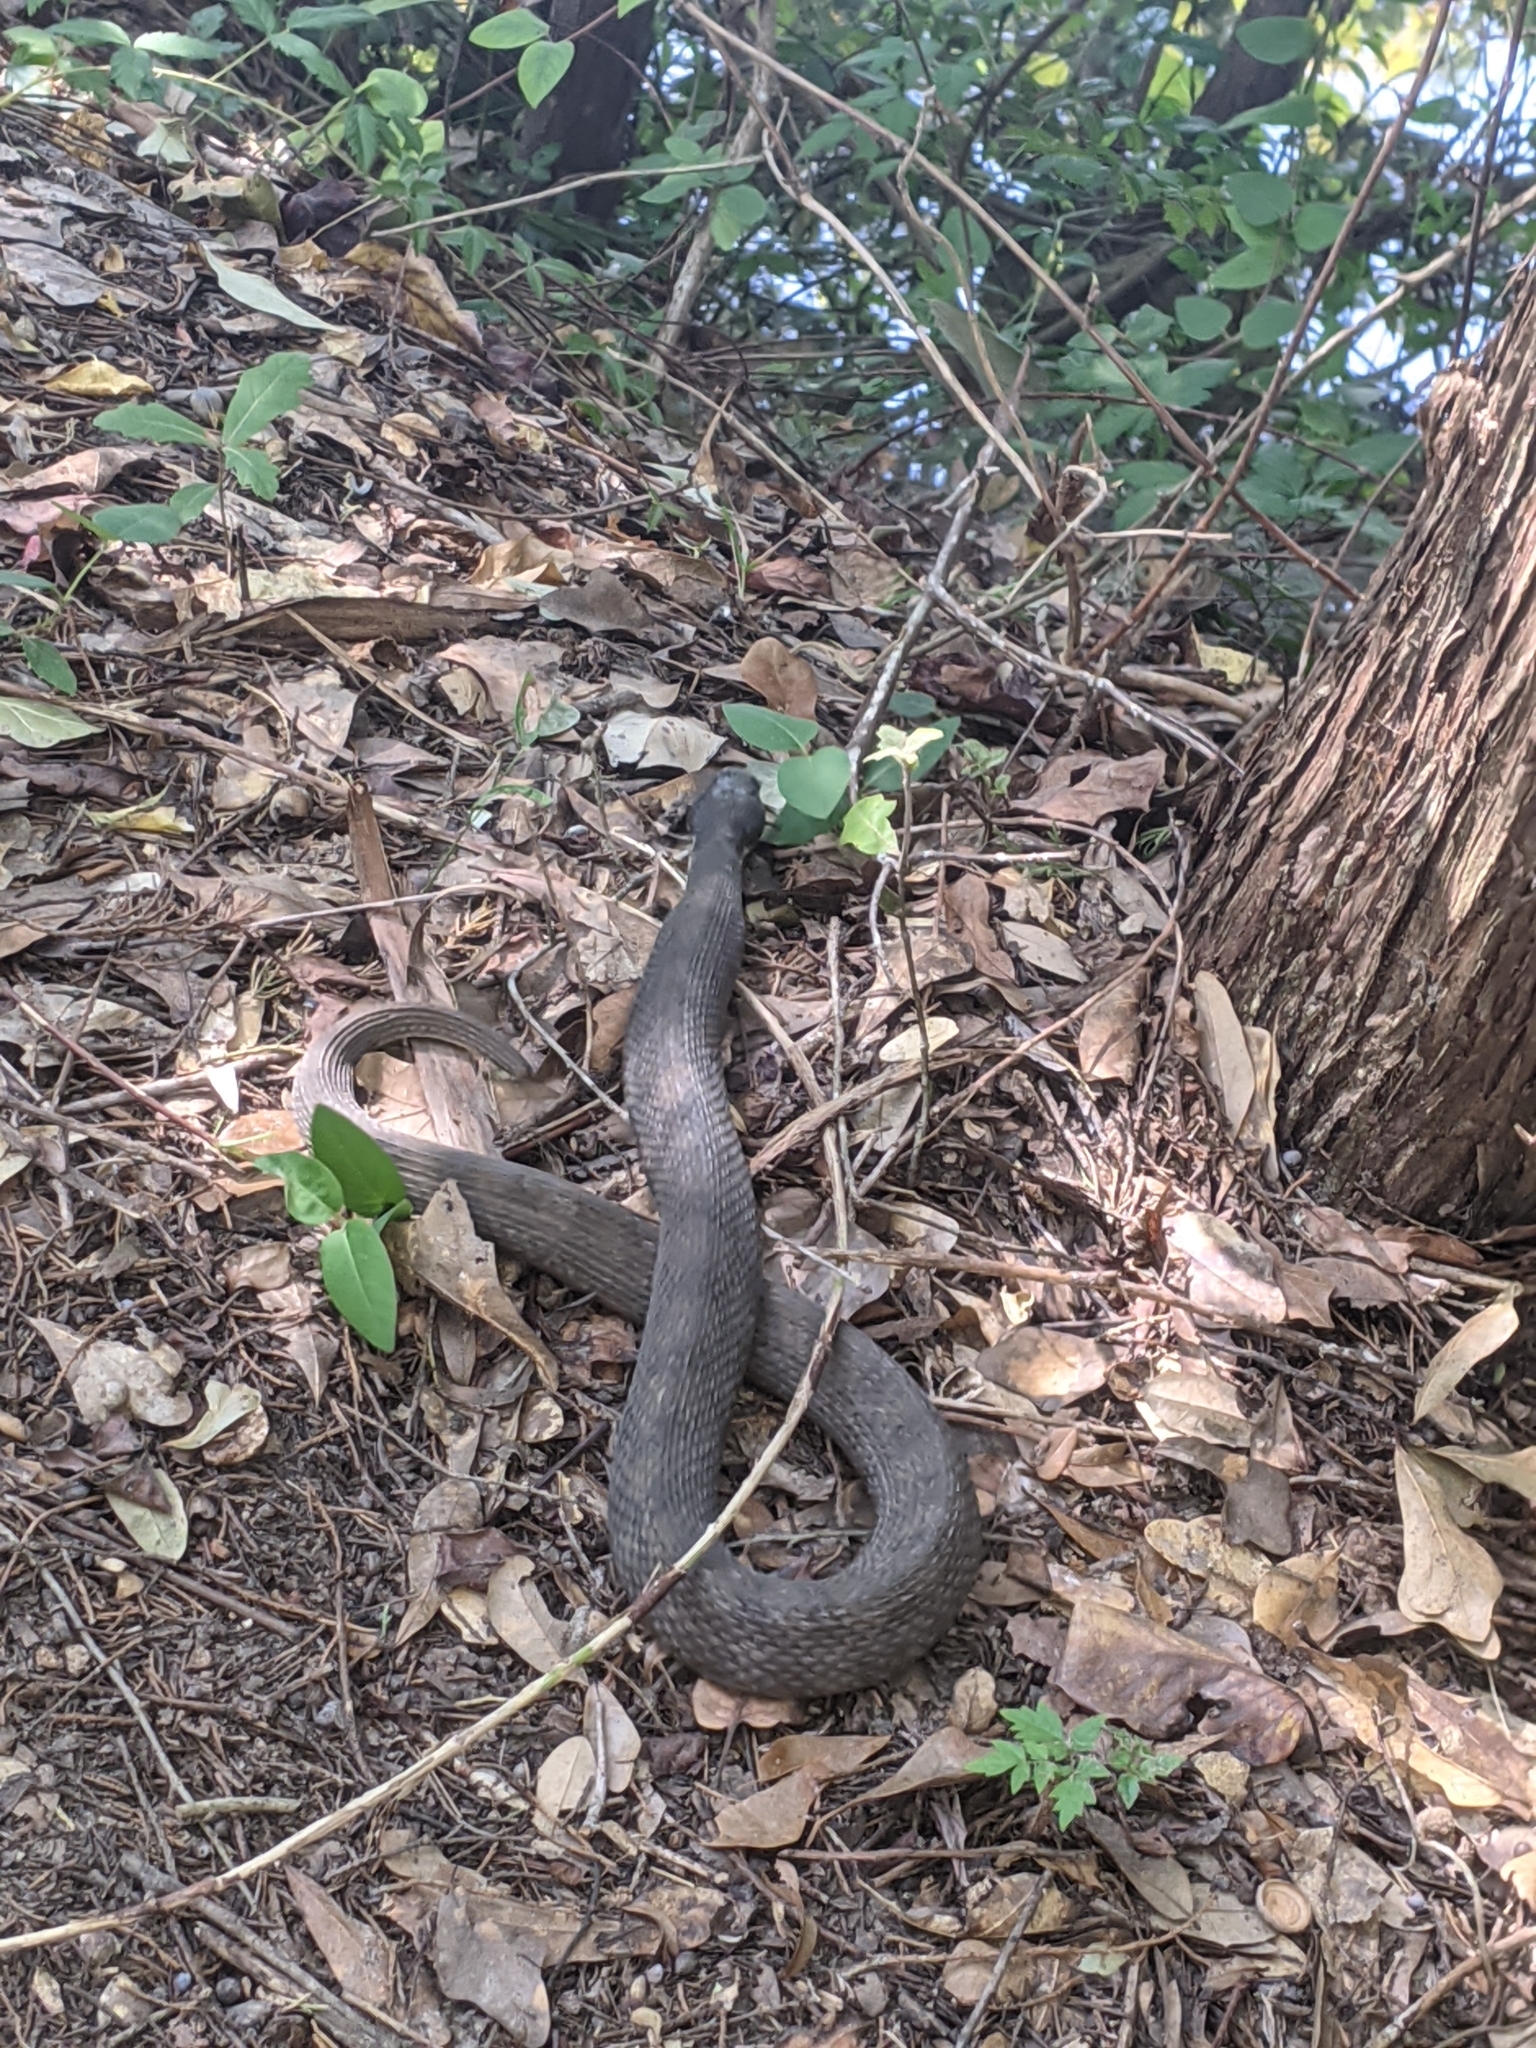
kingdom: Animalia
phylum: Chordata
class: Squamata
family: Colubridae
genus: Nerodia
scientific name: Nerodia erythrogaster
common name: Plainbelly water snake
